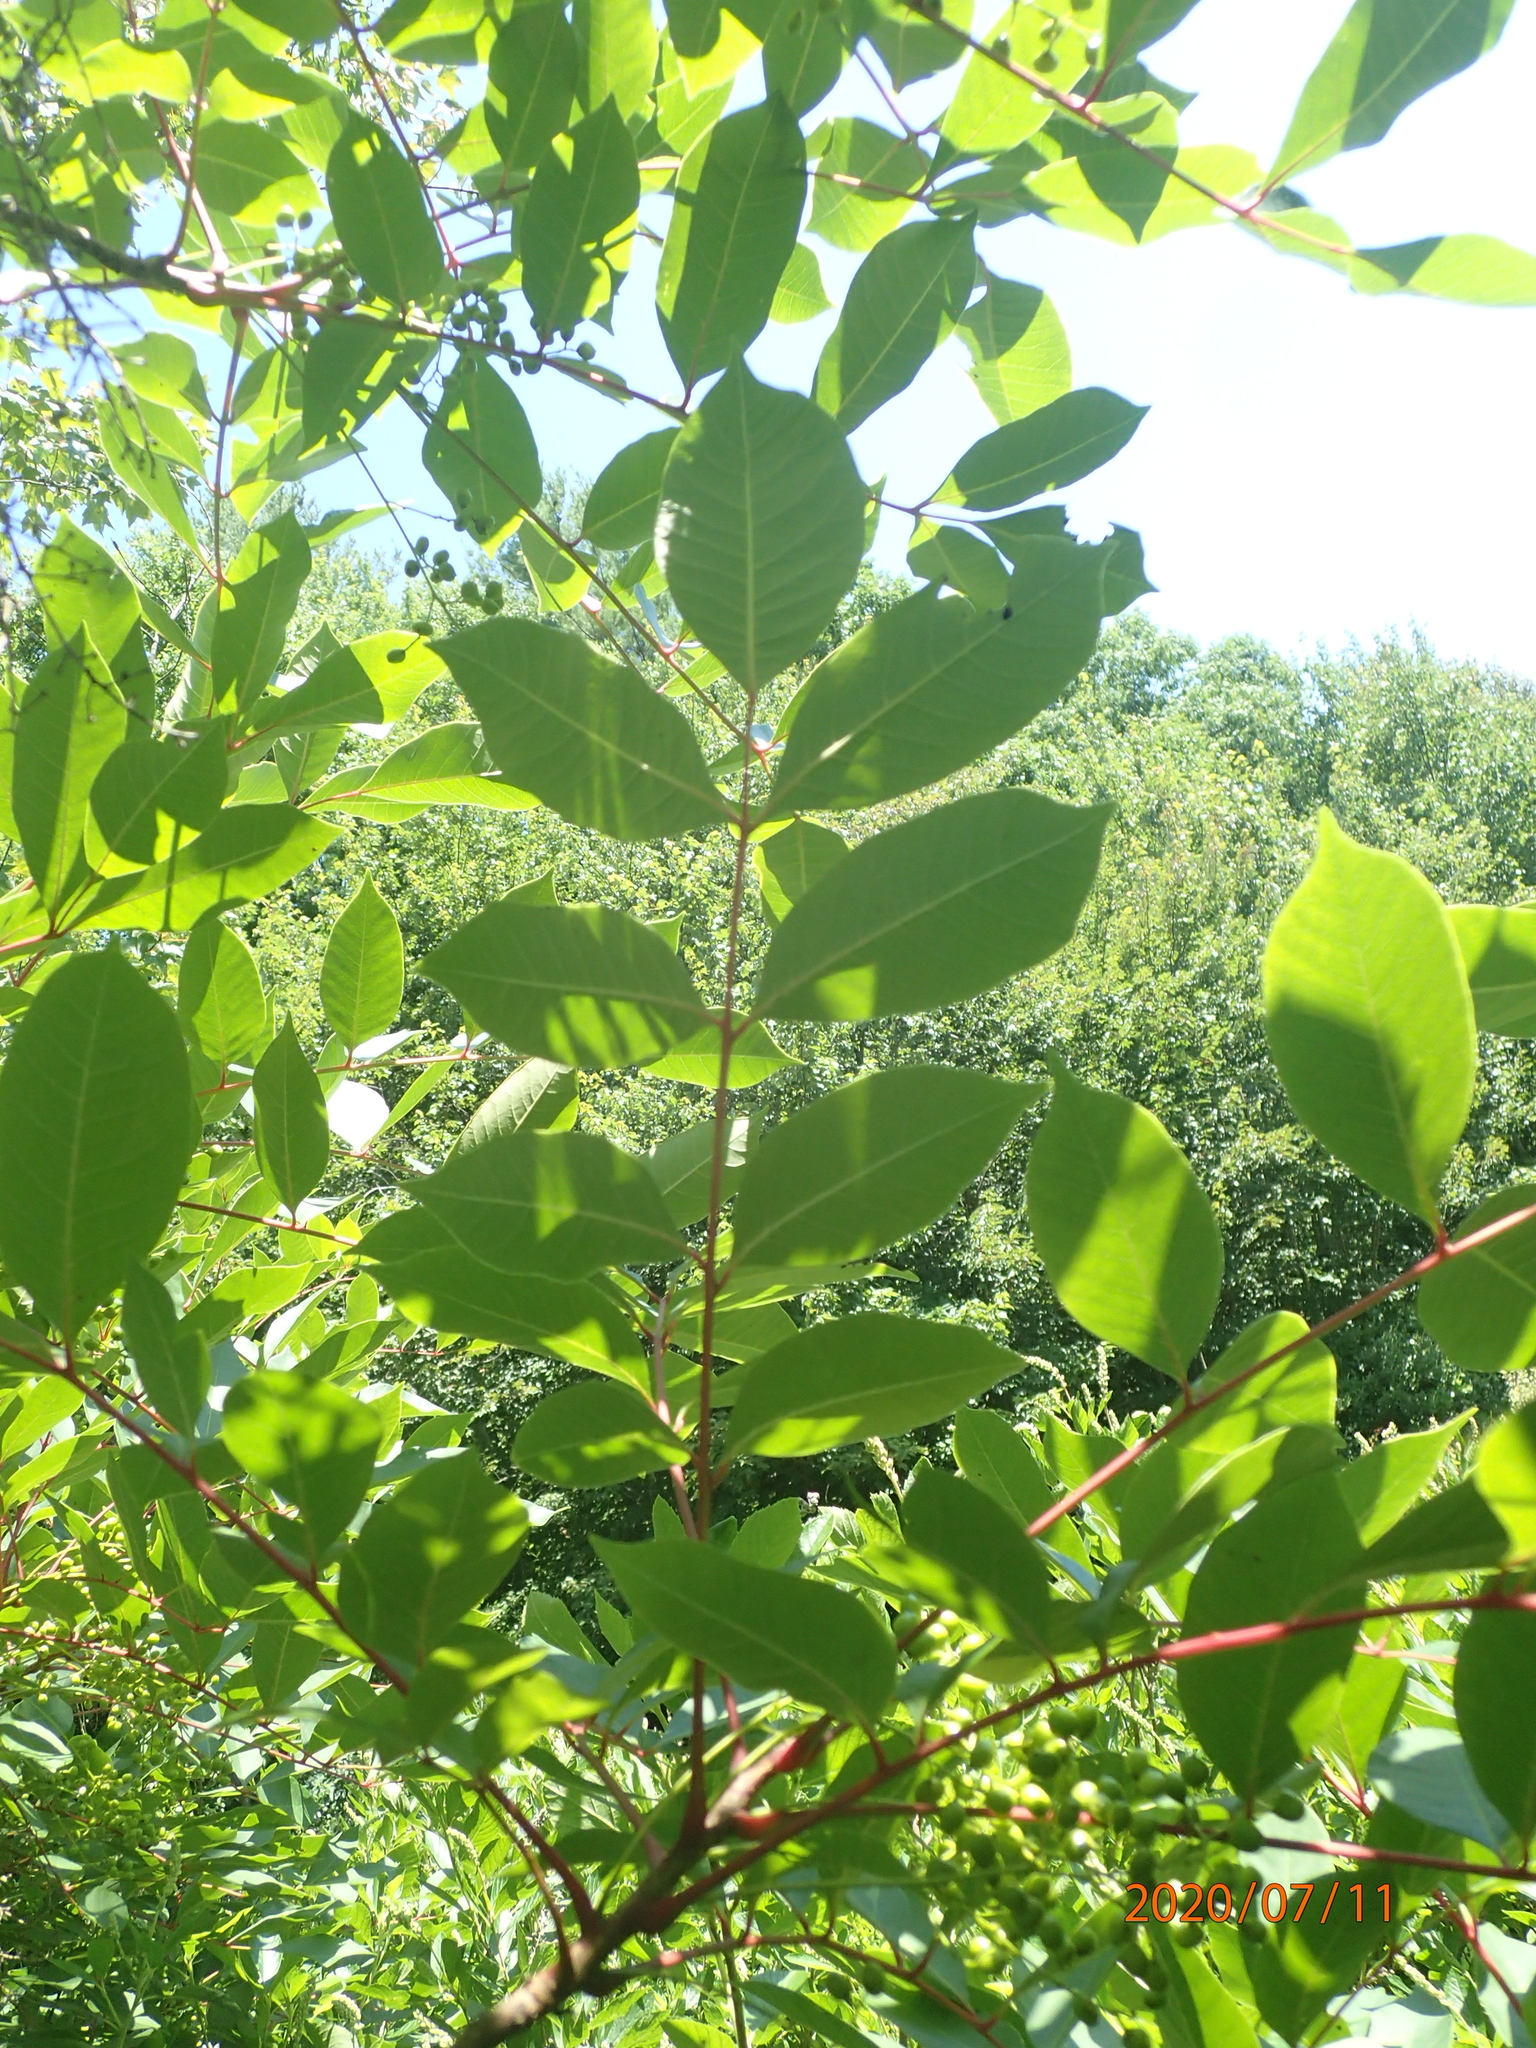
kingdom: Plantae
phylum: Tracheophyta
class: Magnoliopsida
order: Sapindales
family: Anacardiaceae
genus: Toxicodendron
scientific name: Toxicodendron vernix
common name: Poison sumac
